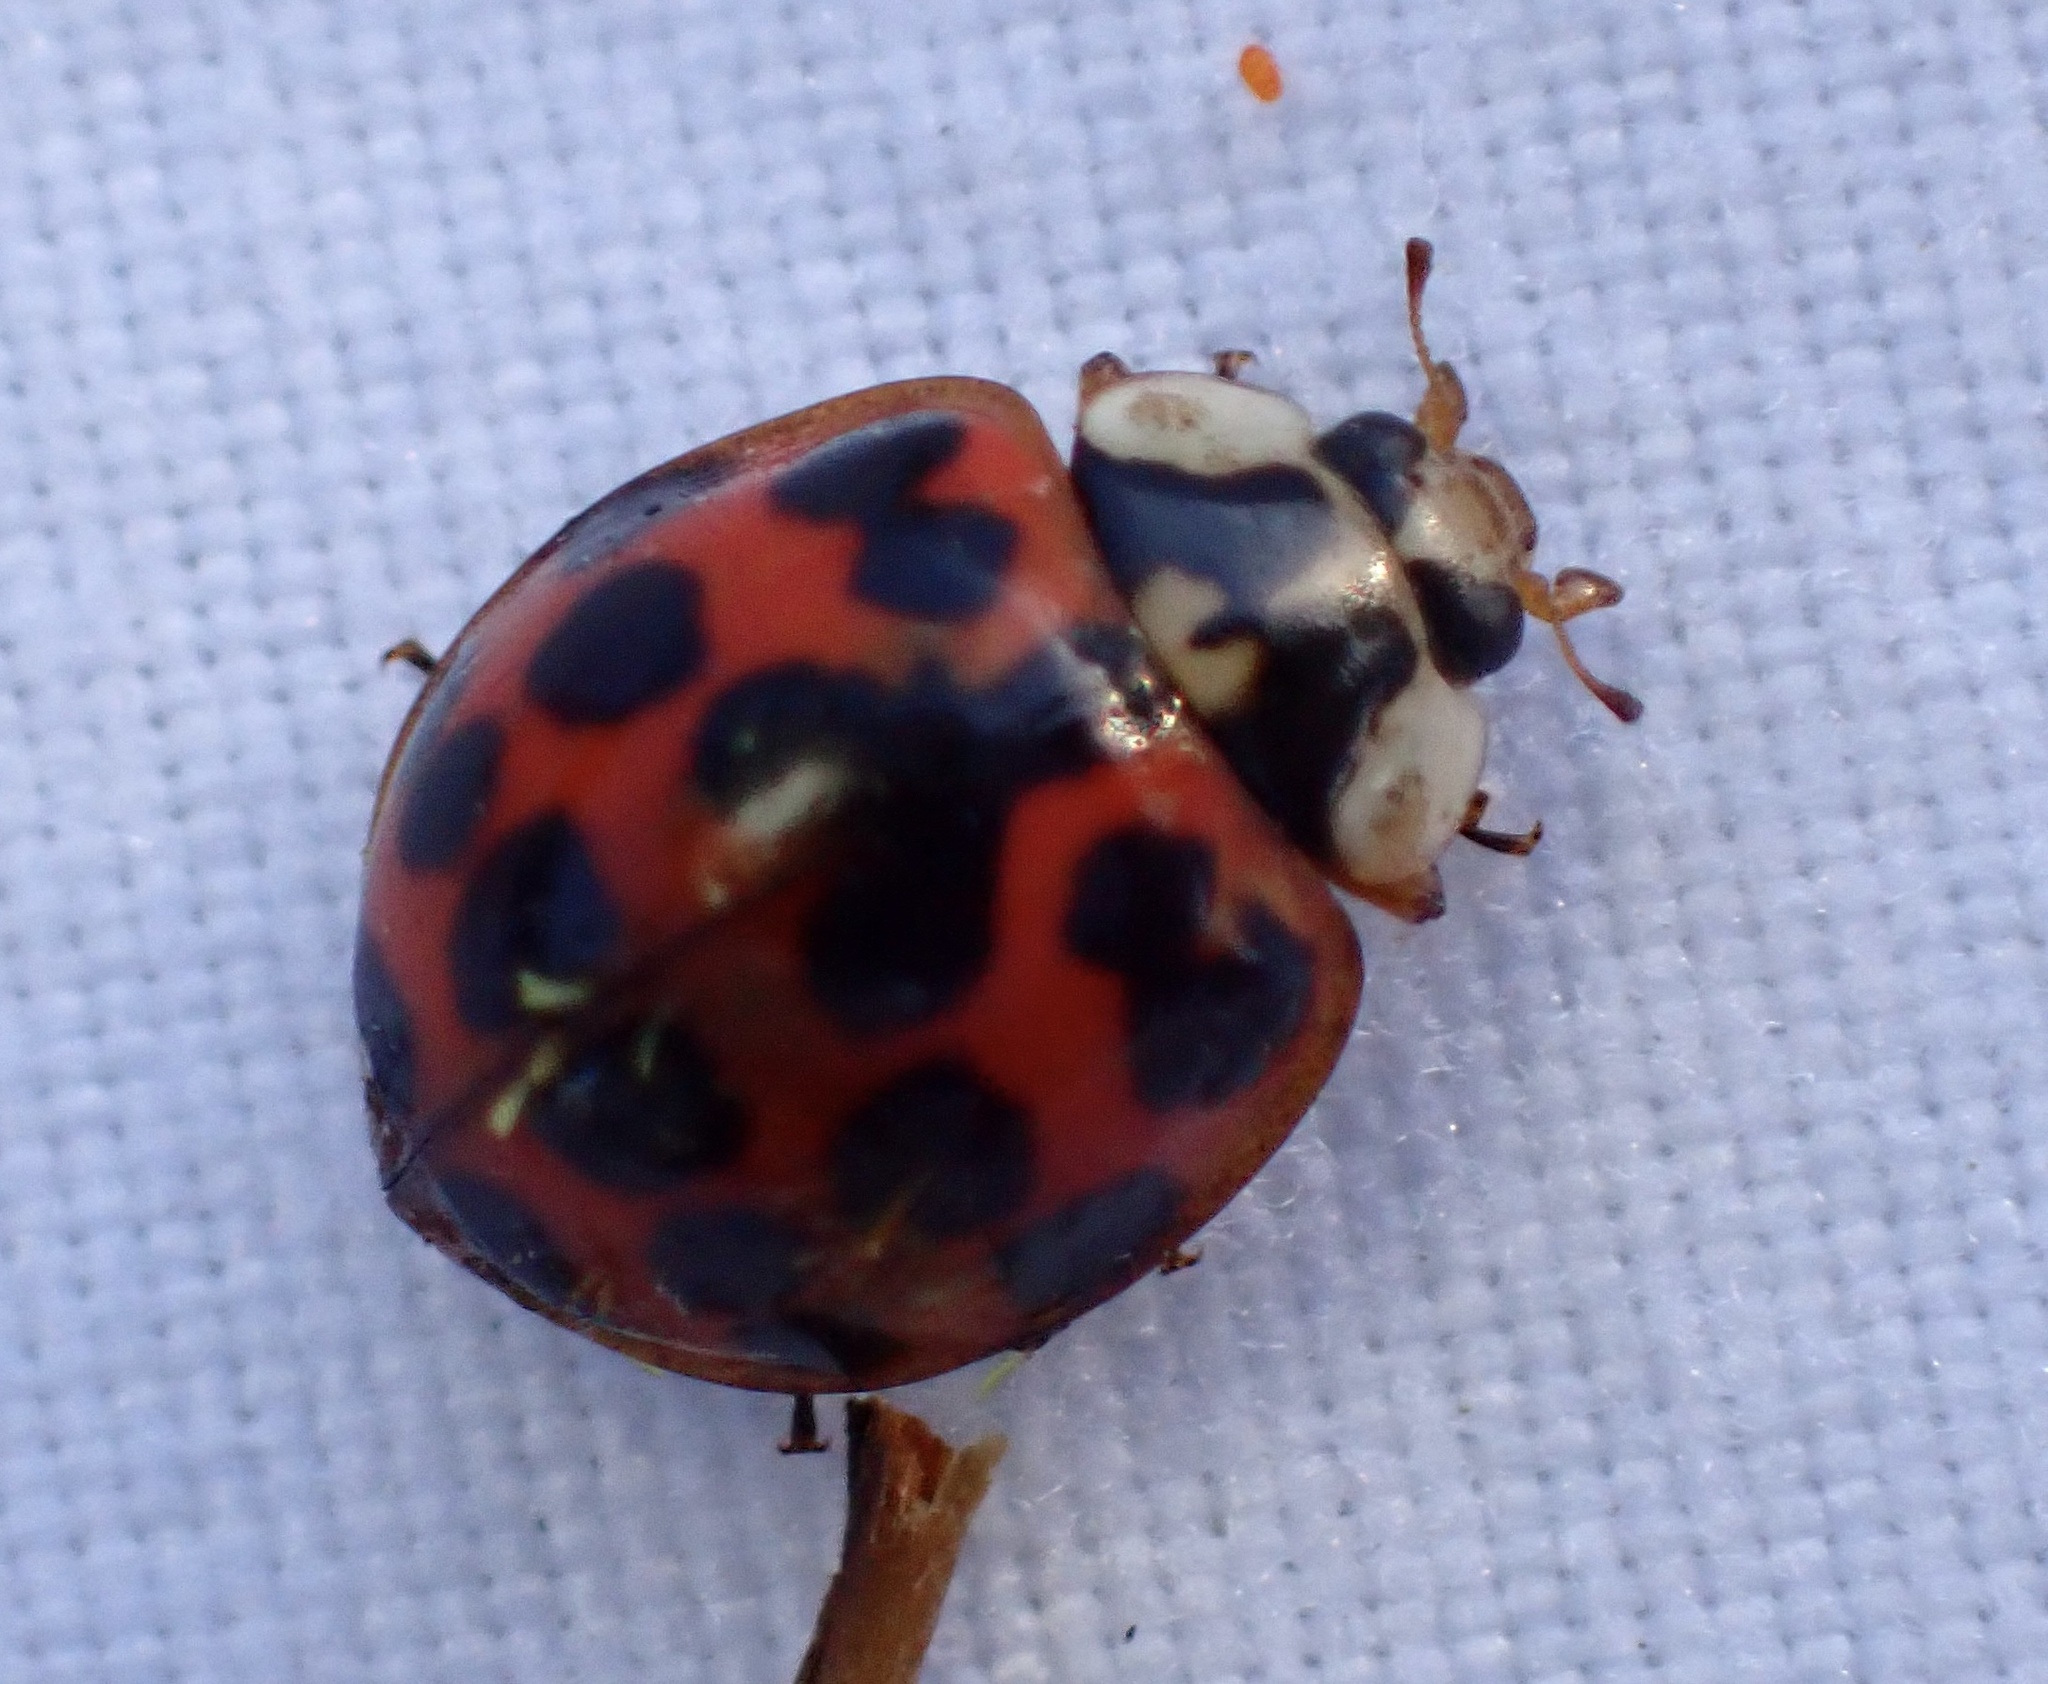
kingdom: Animalia
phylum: Arthropoda
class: Insecta
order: Coleoptera
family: Coccinellidae
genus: Harmonia
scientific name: Harmonia axyridis
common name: Harlequin ladybird
